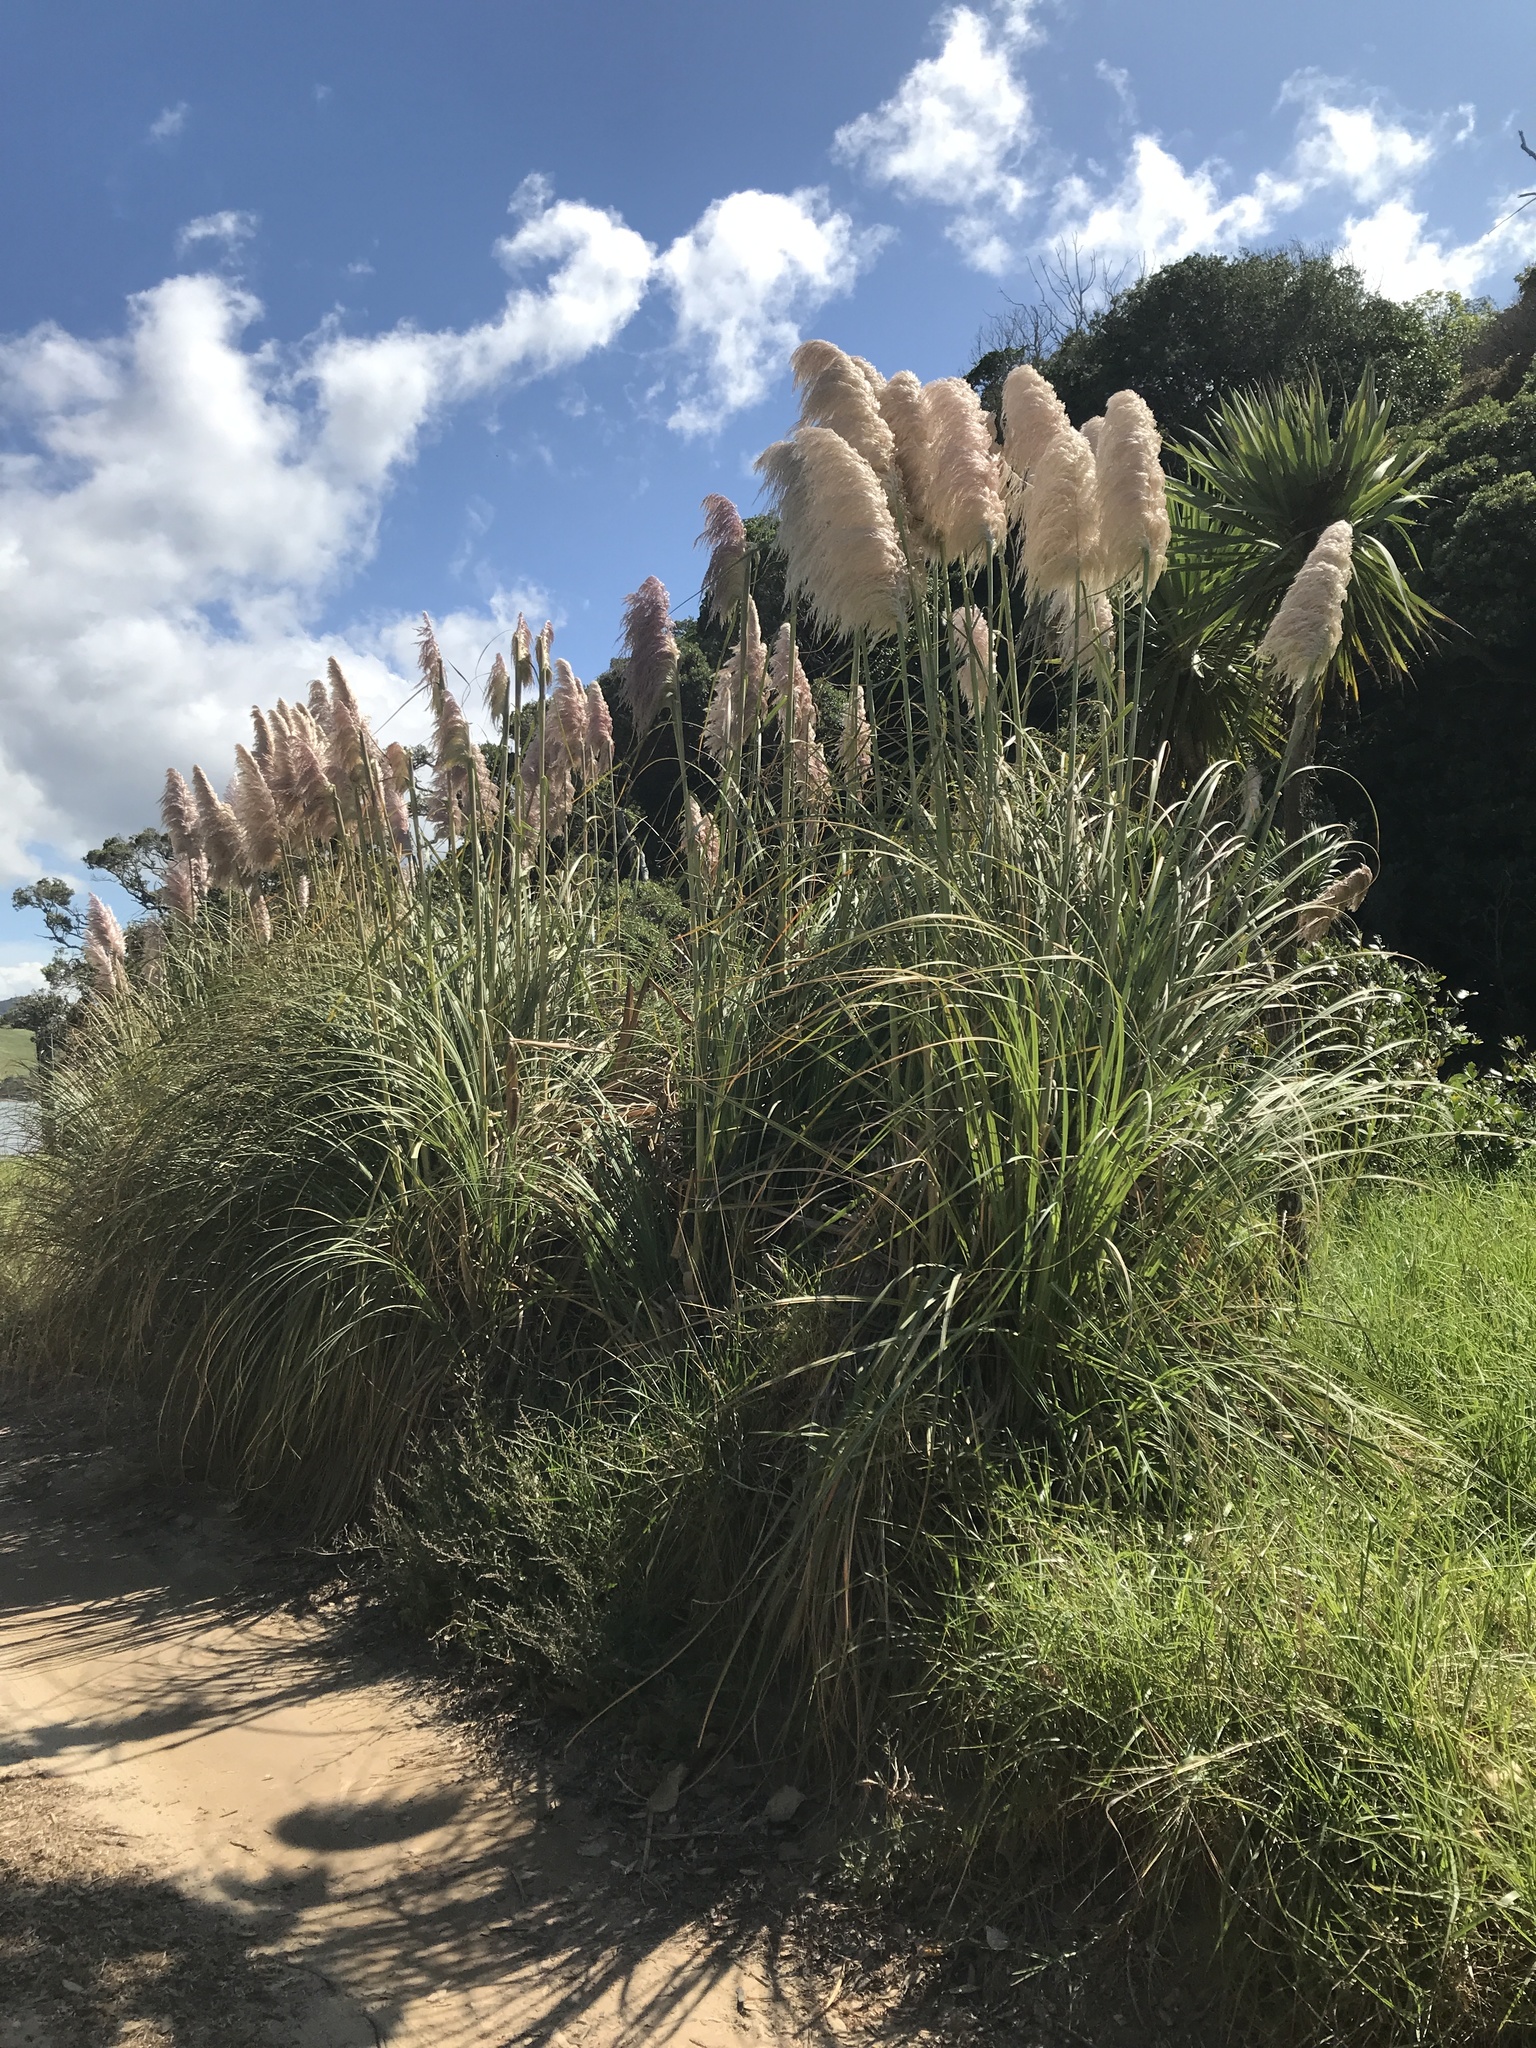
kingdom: Plantae
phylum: Tracheophyta
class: Liliopsida
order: Poales
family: Poaceae
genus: Cortaderia
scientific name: Cortaderia selloana
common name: Uruguayan pampas grass
